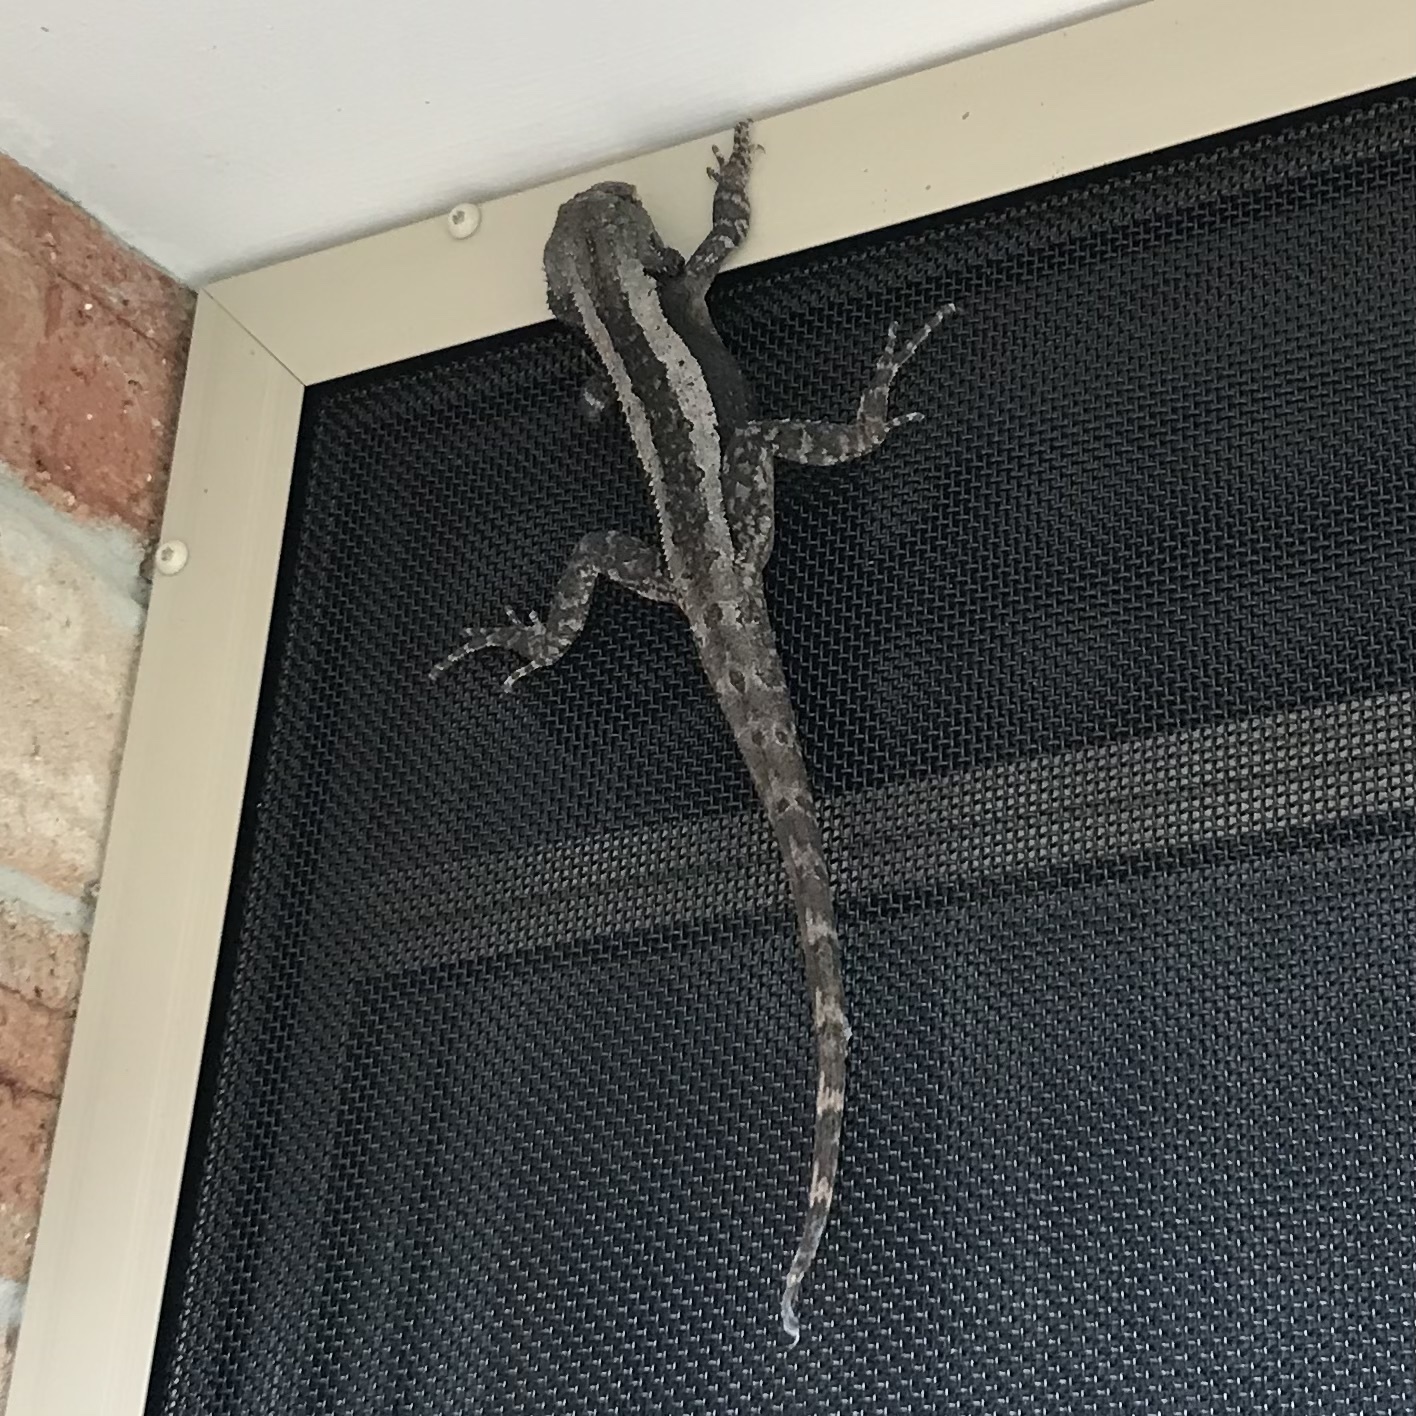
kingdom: Animalia
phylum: Chordata
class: Squamata
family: Agamidae
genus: Amphibolurus
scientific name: Amphibolurus muricatus
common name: Jacky lizard
